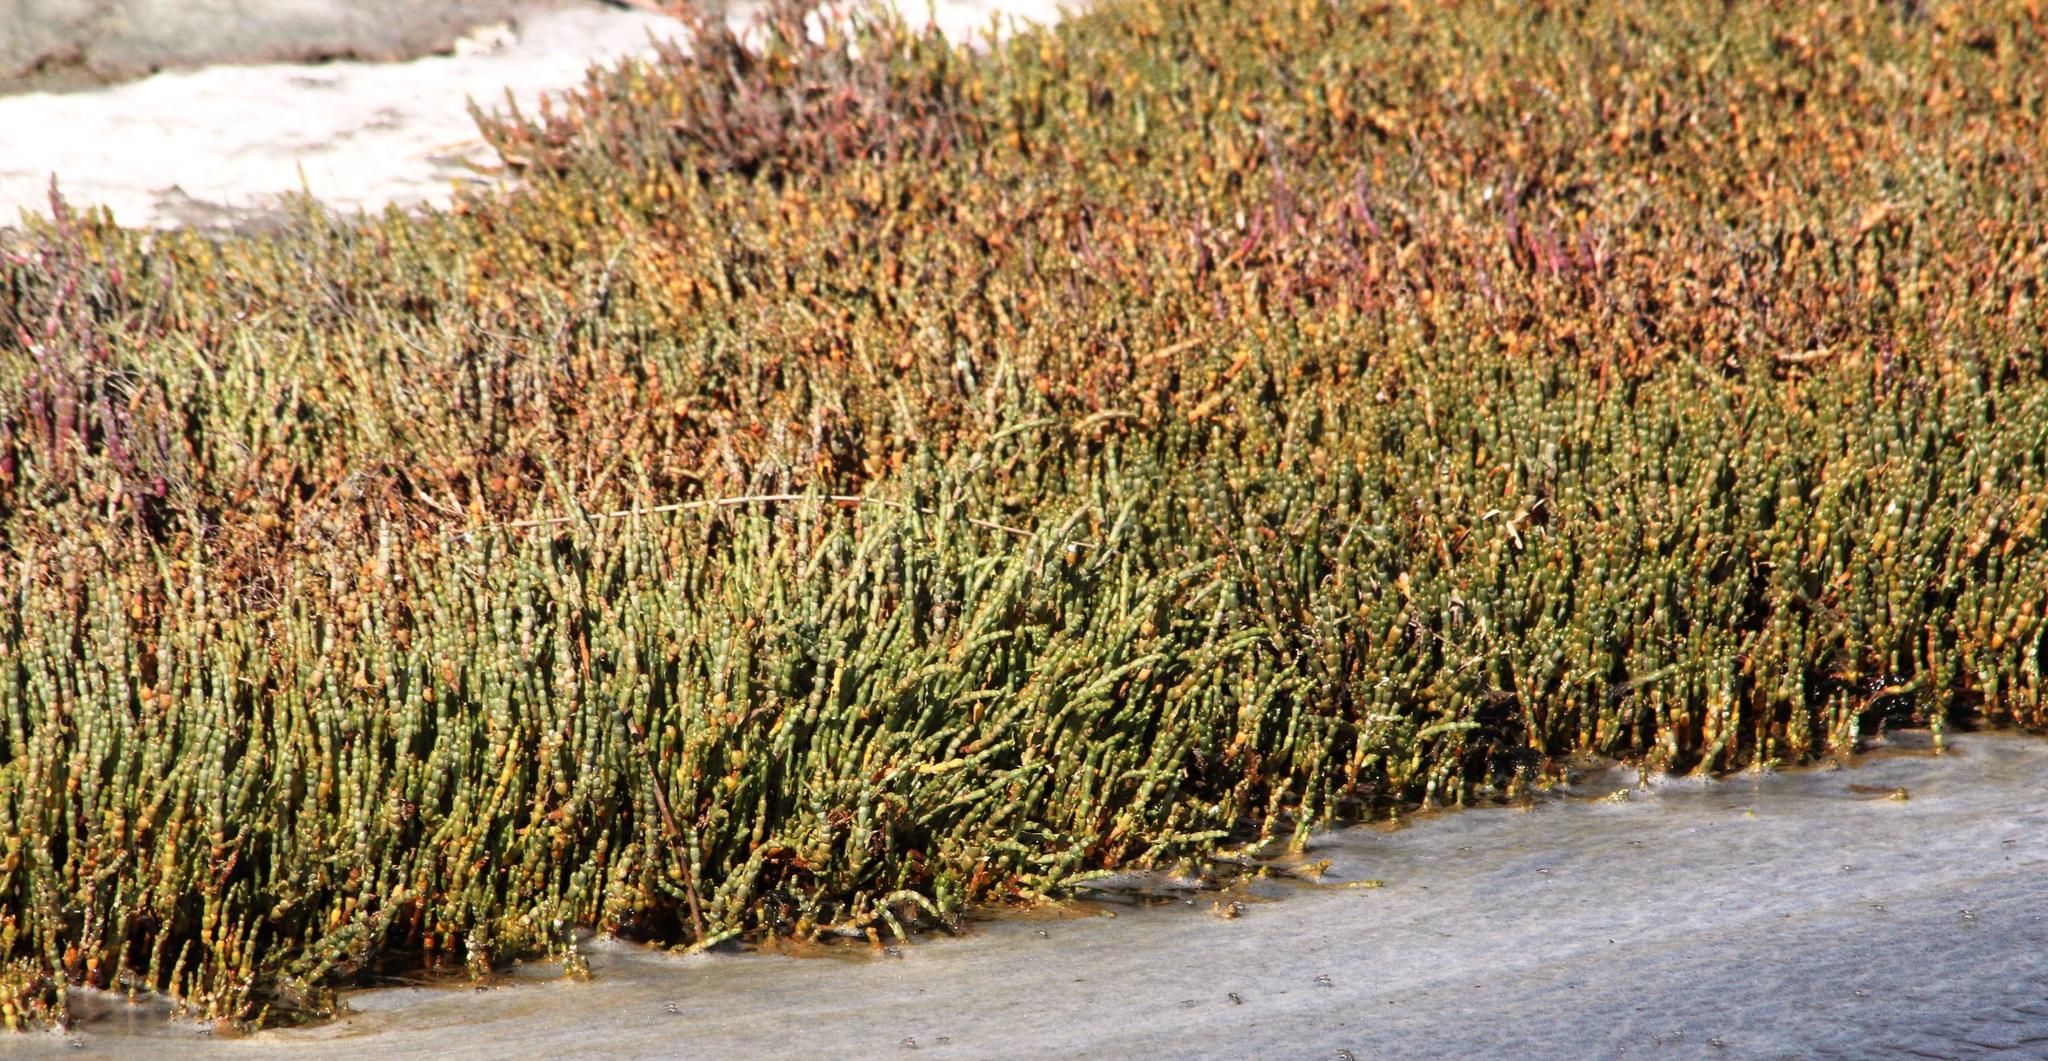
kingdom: Plantae
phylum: Tracheophyta
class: Magnoliopsida
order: Caryophyllales
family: Amaranthaceae
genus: Salicornia
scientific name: Salicornia tegetaria
